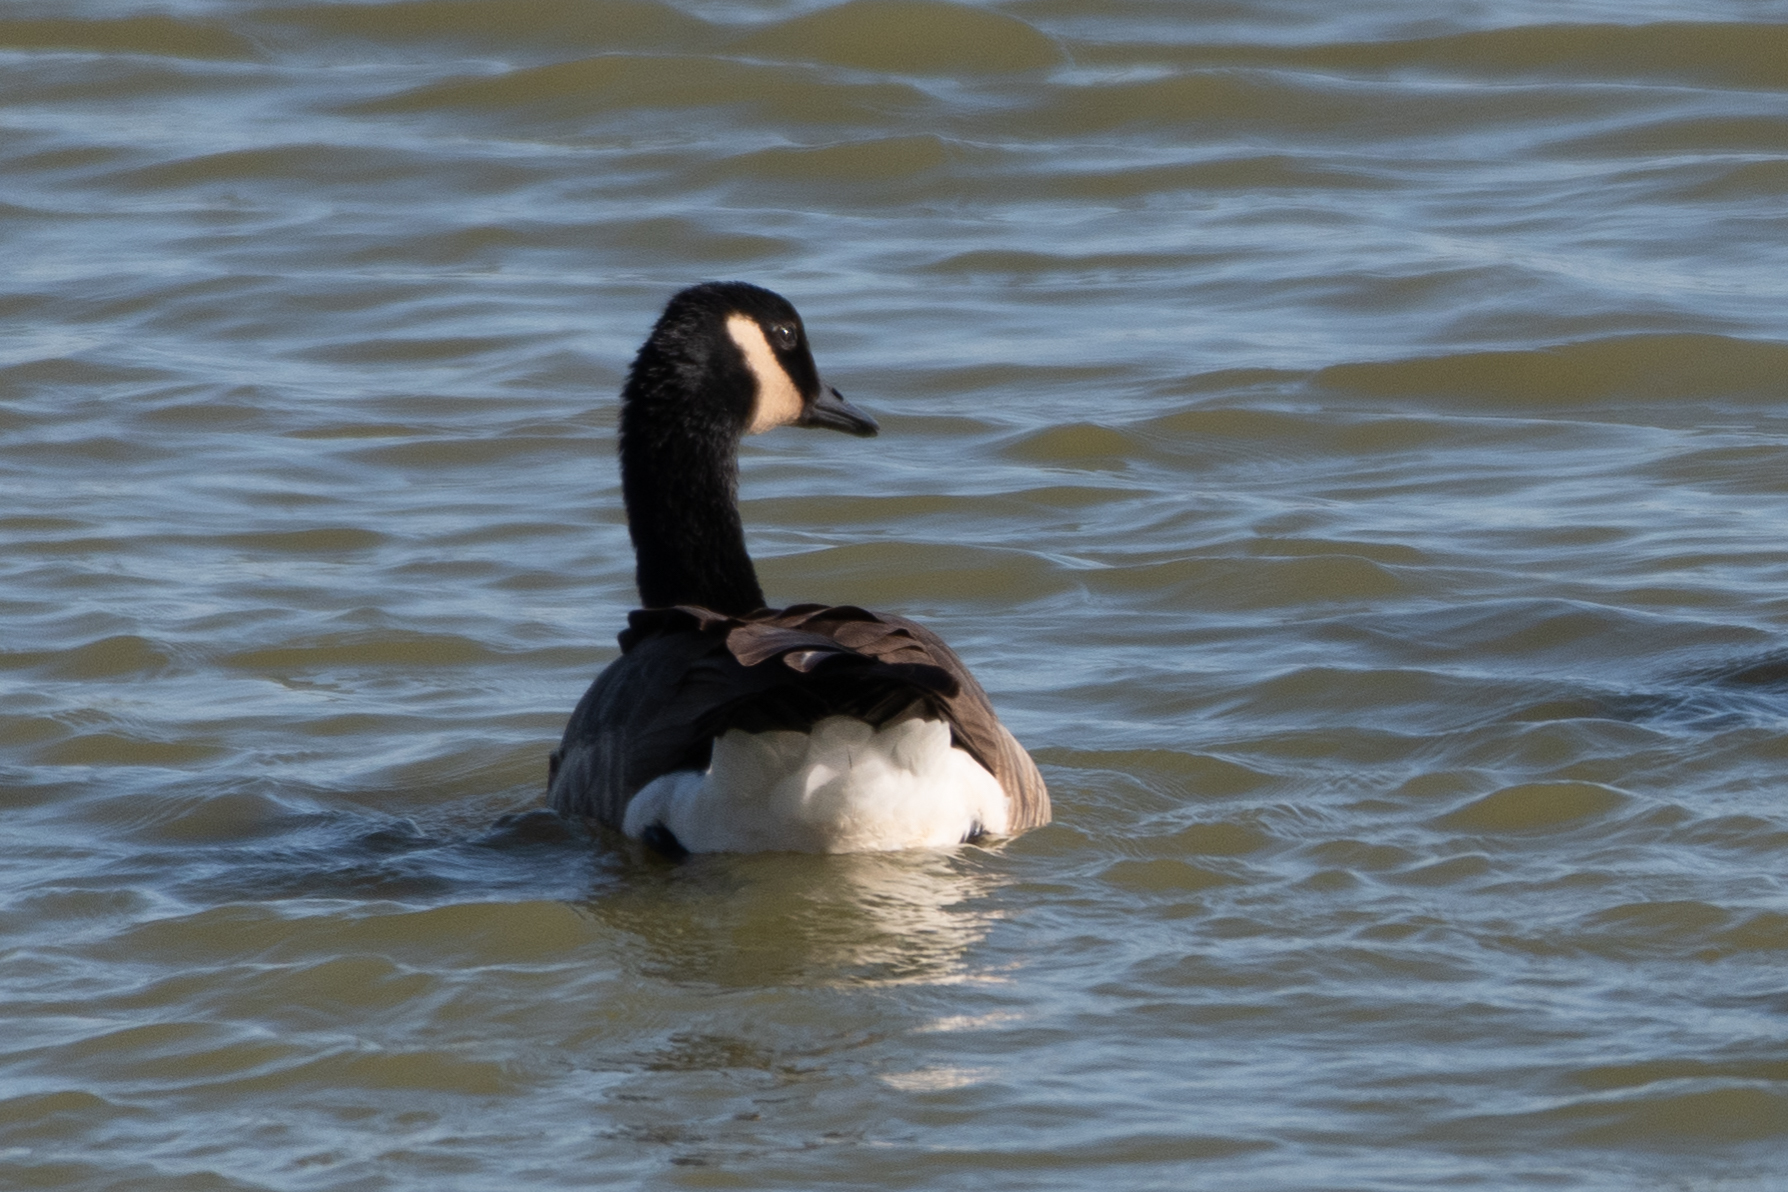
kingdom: Animalia
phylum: Chordata
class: Aves
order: Anseriformes
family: Anatidae
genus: Branta
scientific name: Branta canadensis
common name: Canada goose
